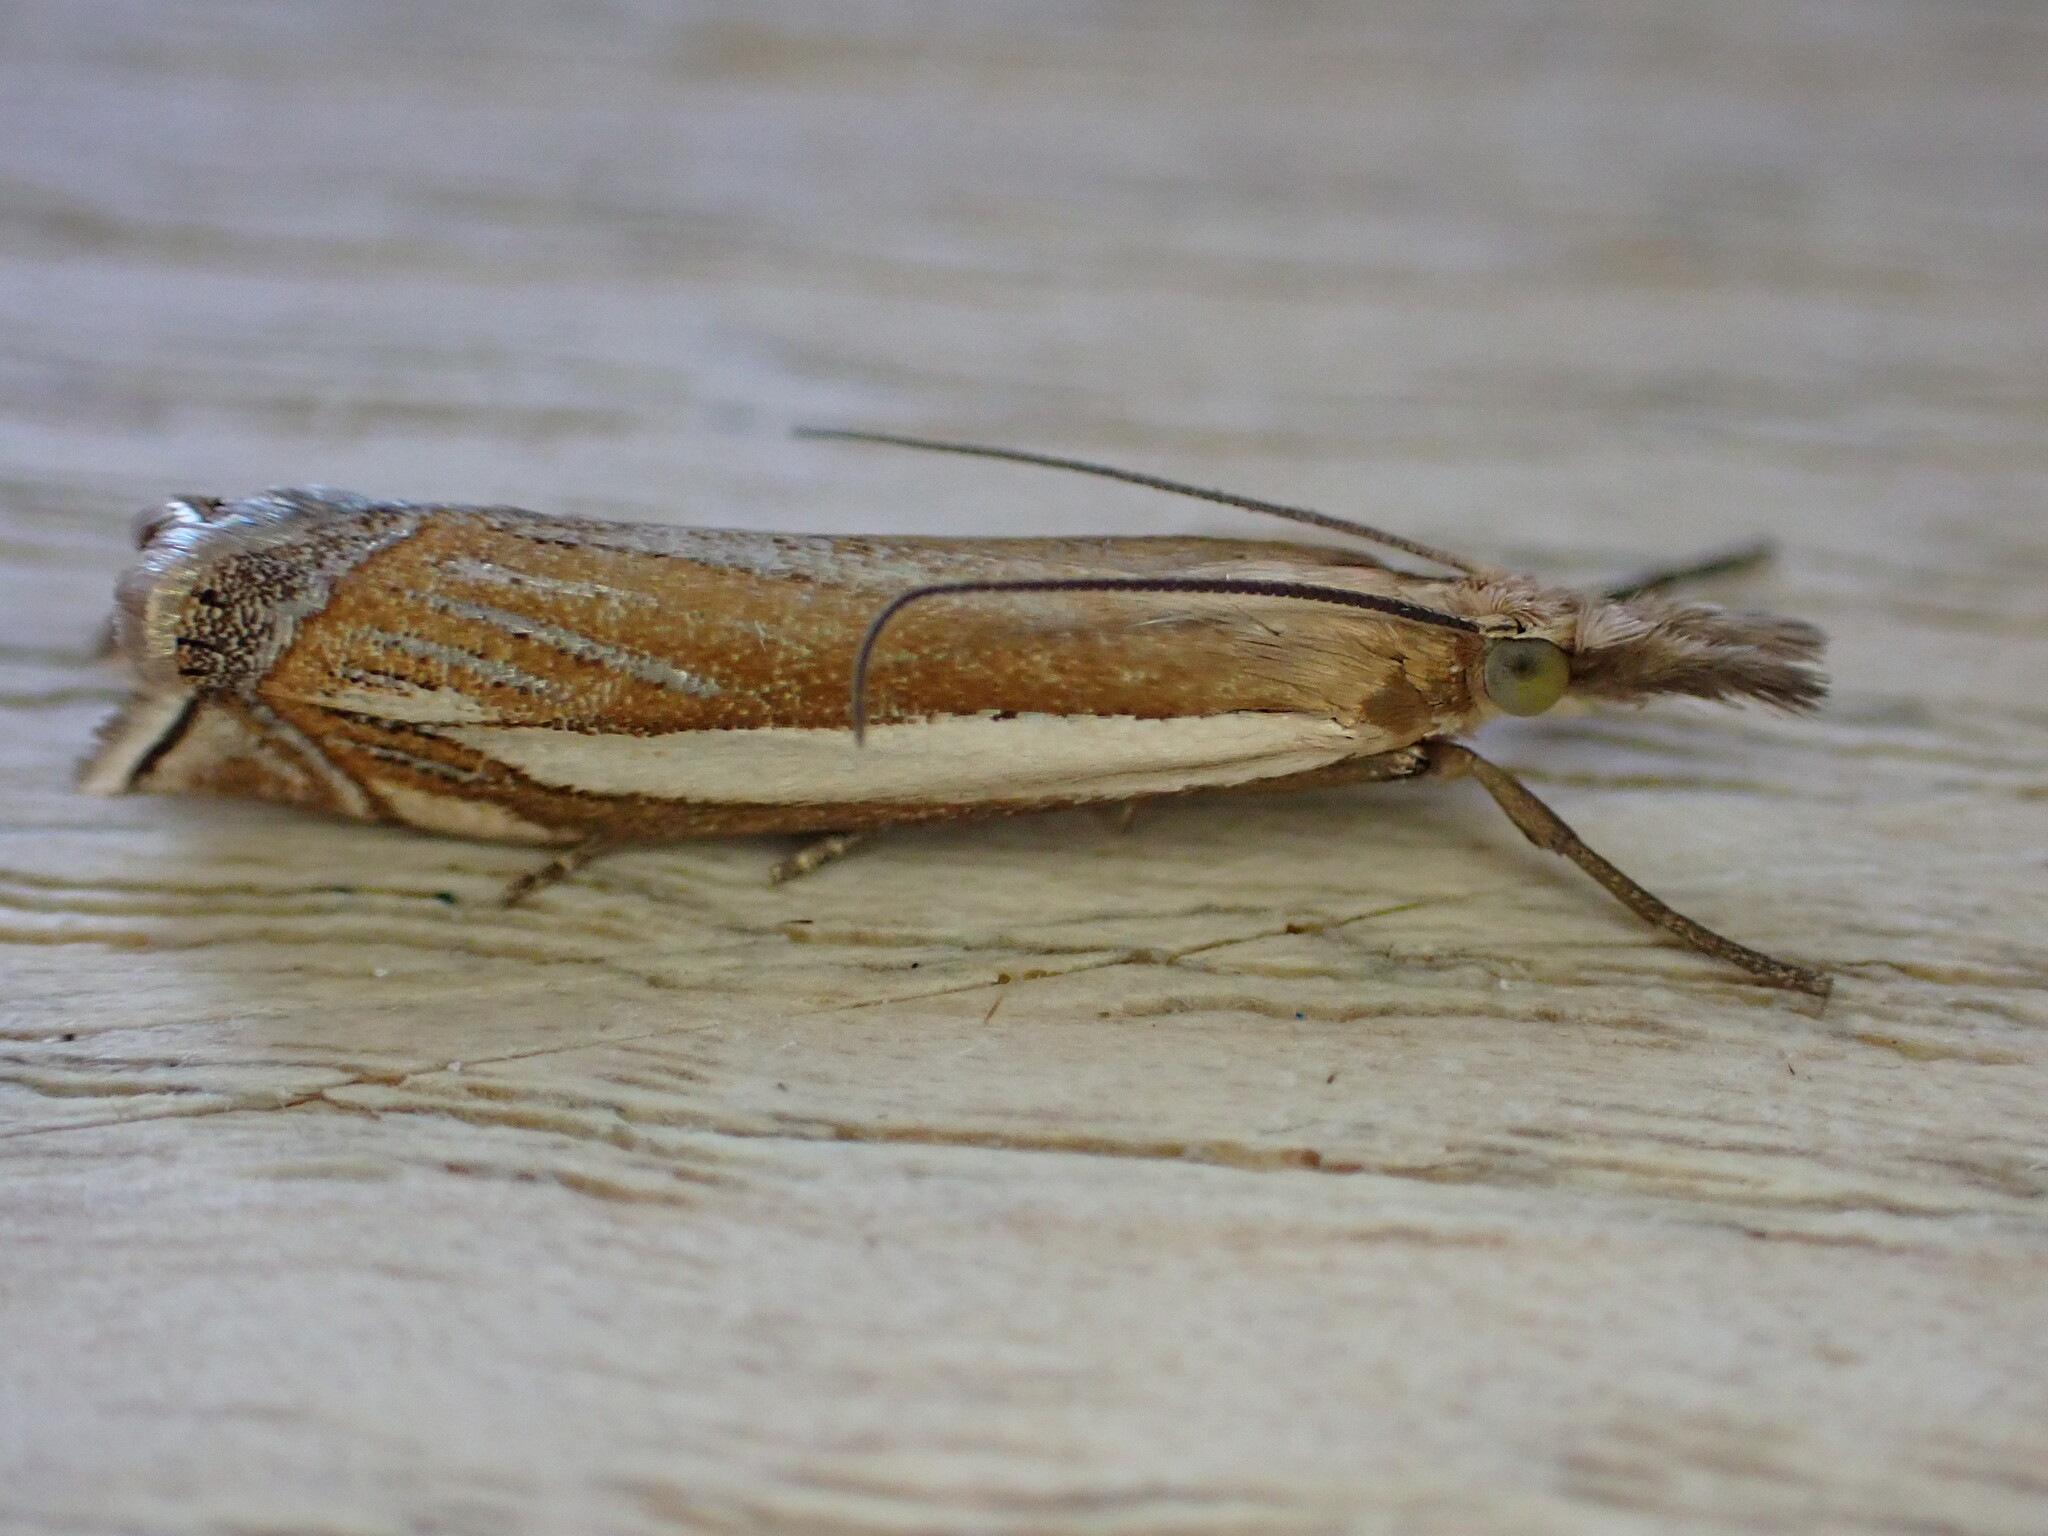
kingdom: Animalia
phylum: Arthropoda
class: Insecta
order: Lepidoptera
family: Crambidae
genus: Crambus
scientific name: Crambus pascuella
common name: Inlaid grass-veneer
